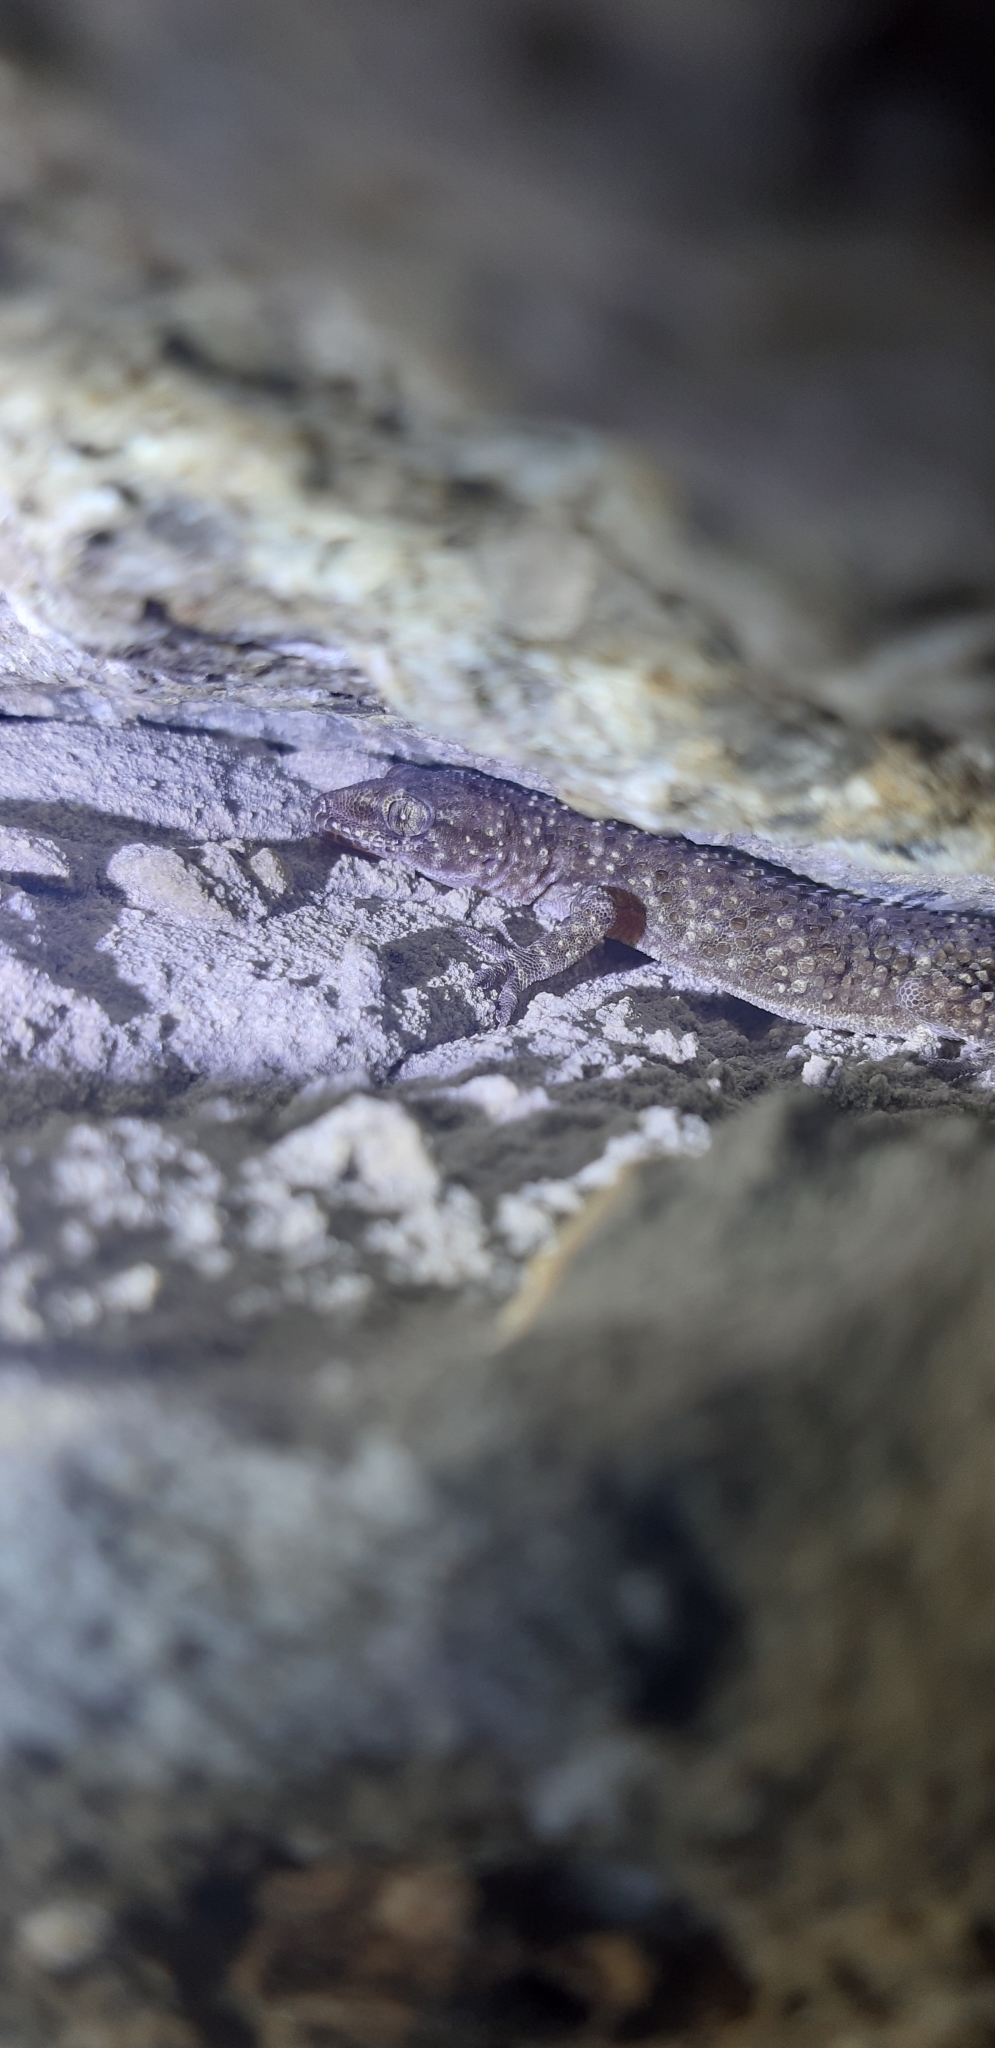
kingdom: Animalia
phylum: Chordata
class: Squamata
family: Gekkonidae
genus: Hemidactylus
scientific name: Hemidactylus turcicus
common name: Turkish gecko
